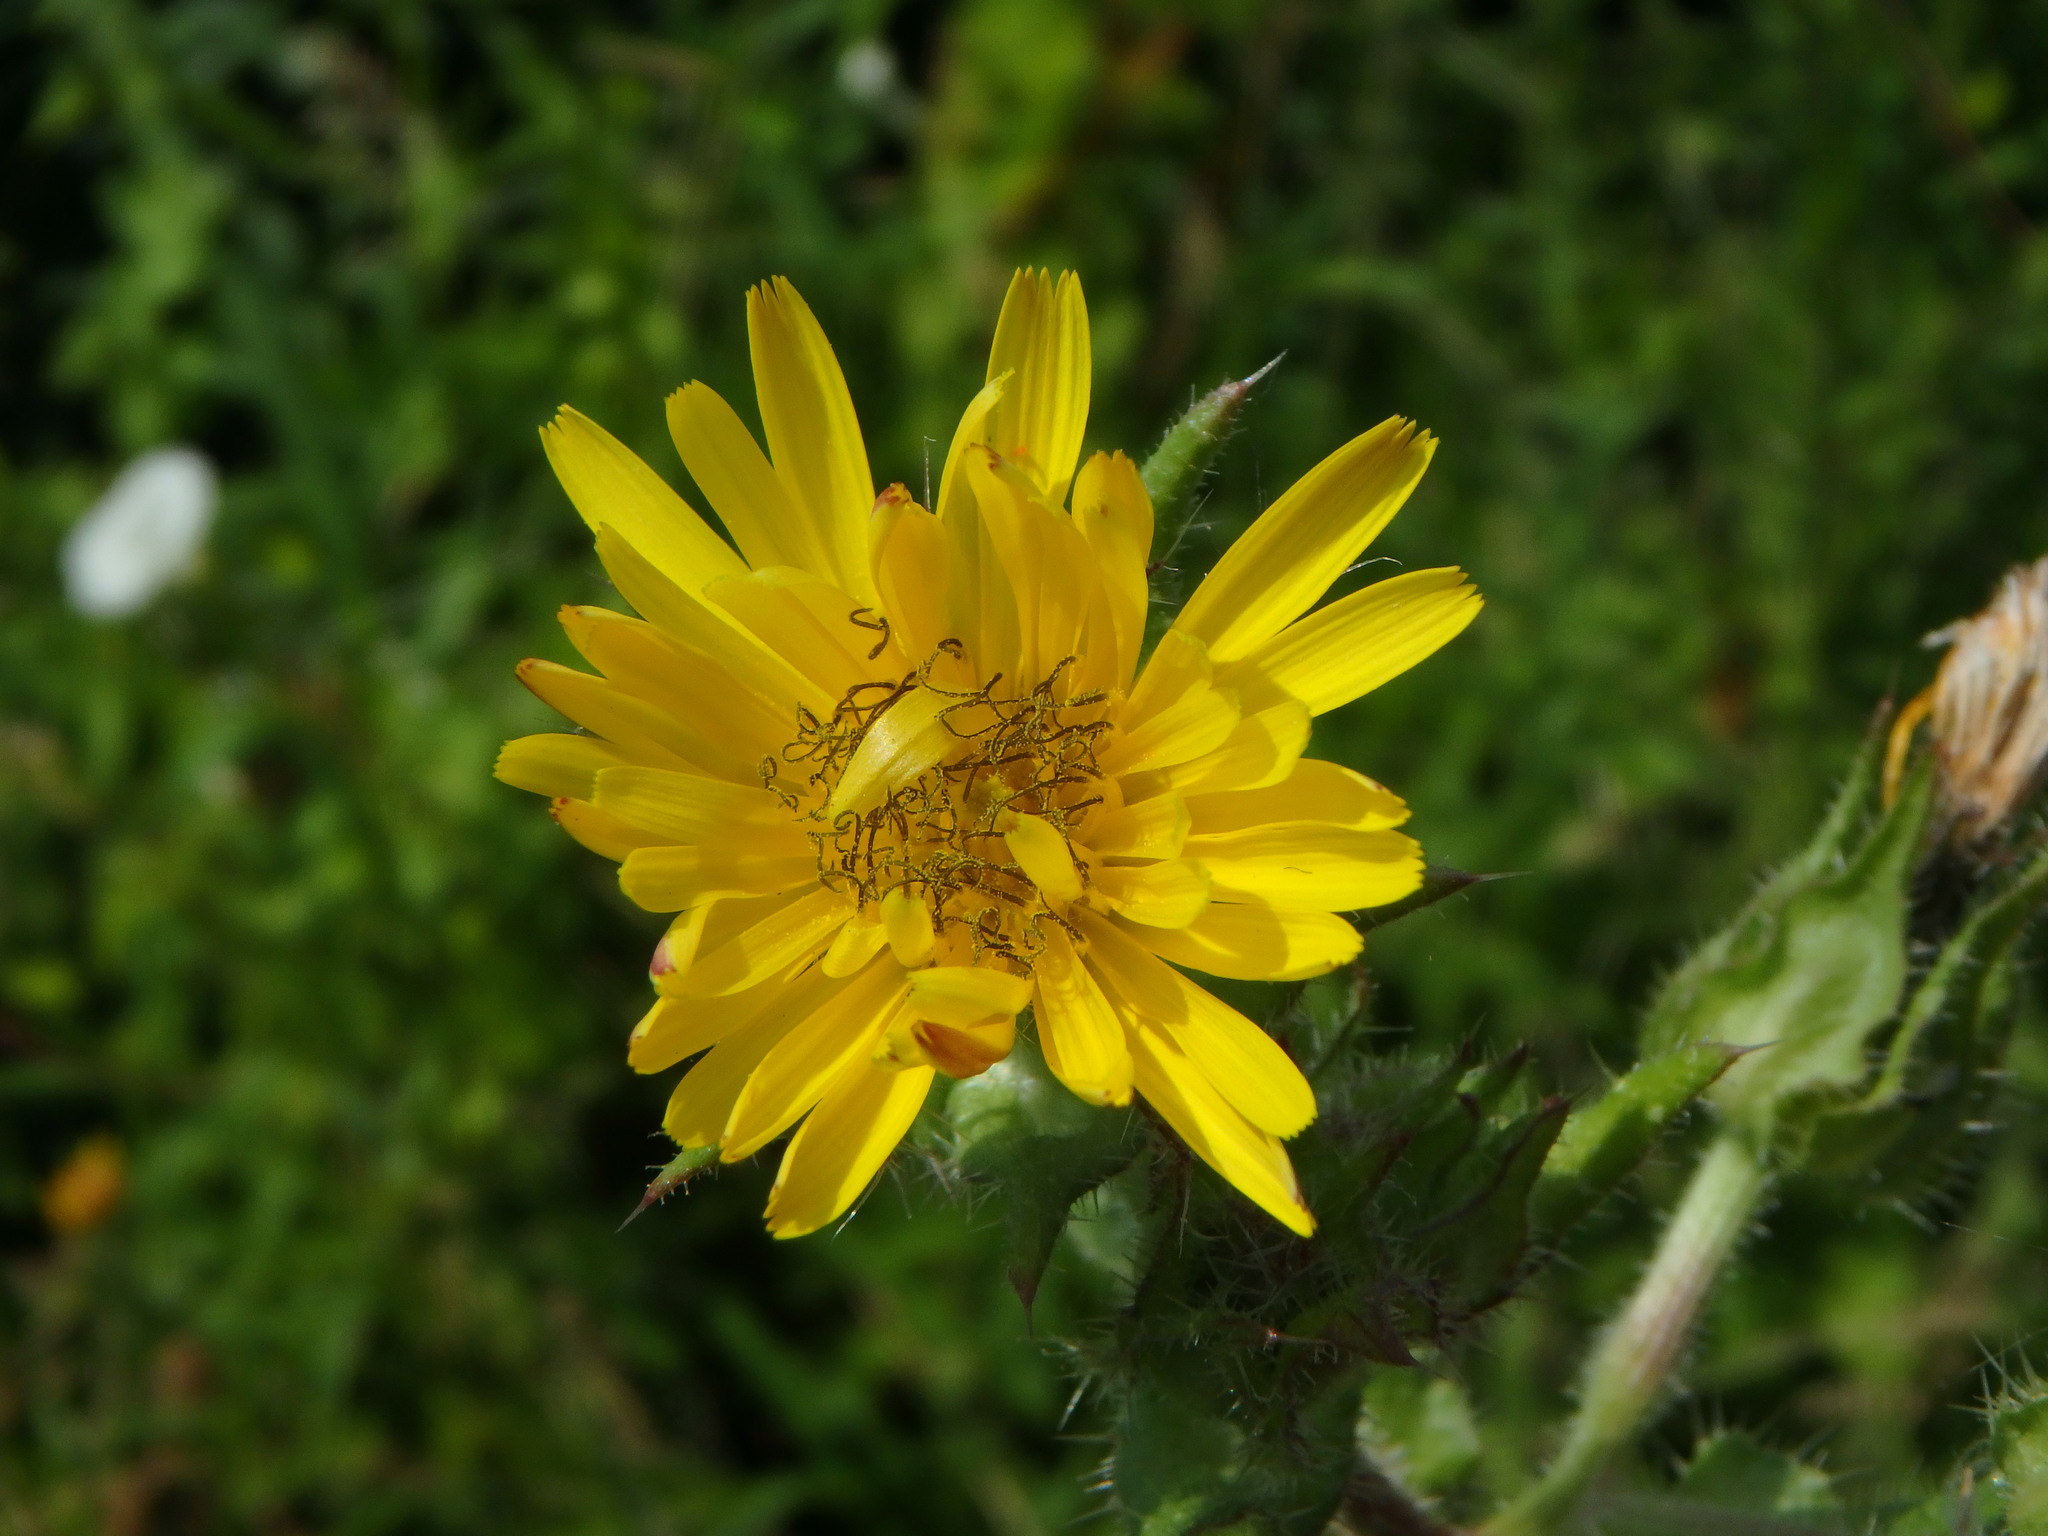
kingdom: Plantae
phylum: Tracheophyta
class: Magnoliopsida
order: Asterales
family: Asteraceae
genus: Helminthotheca
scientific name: Helminthotheca echioides
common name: Ox-tongue
